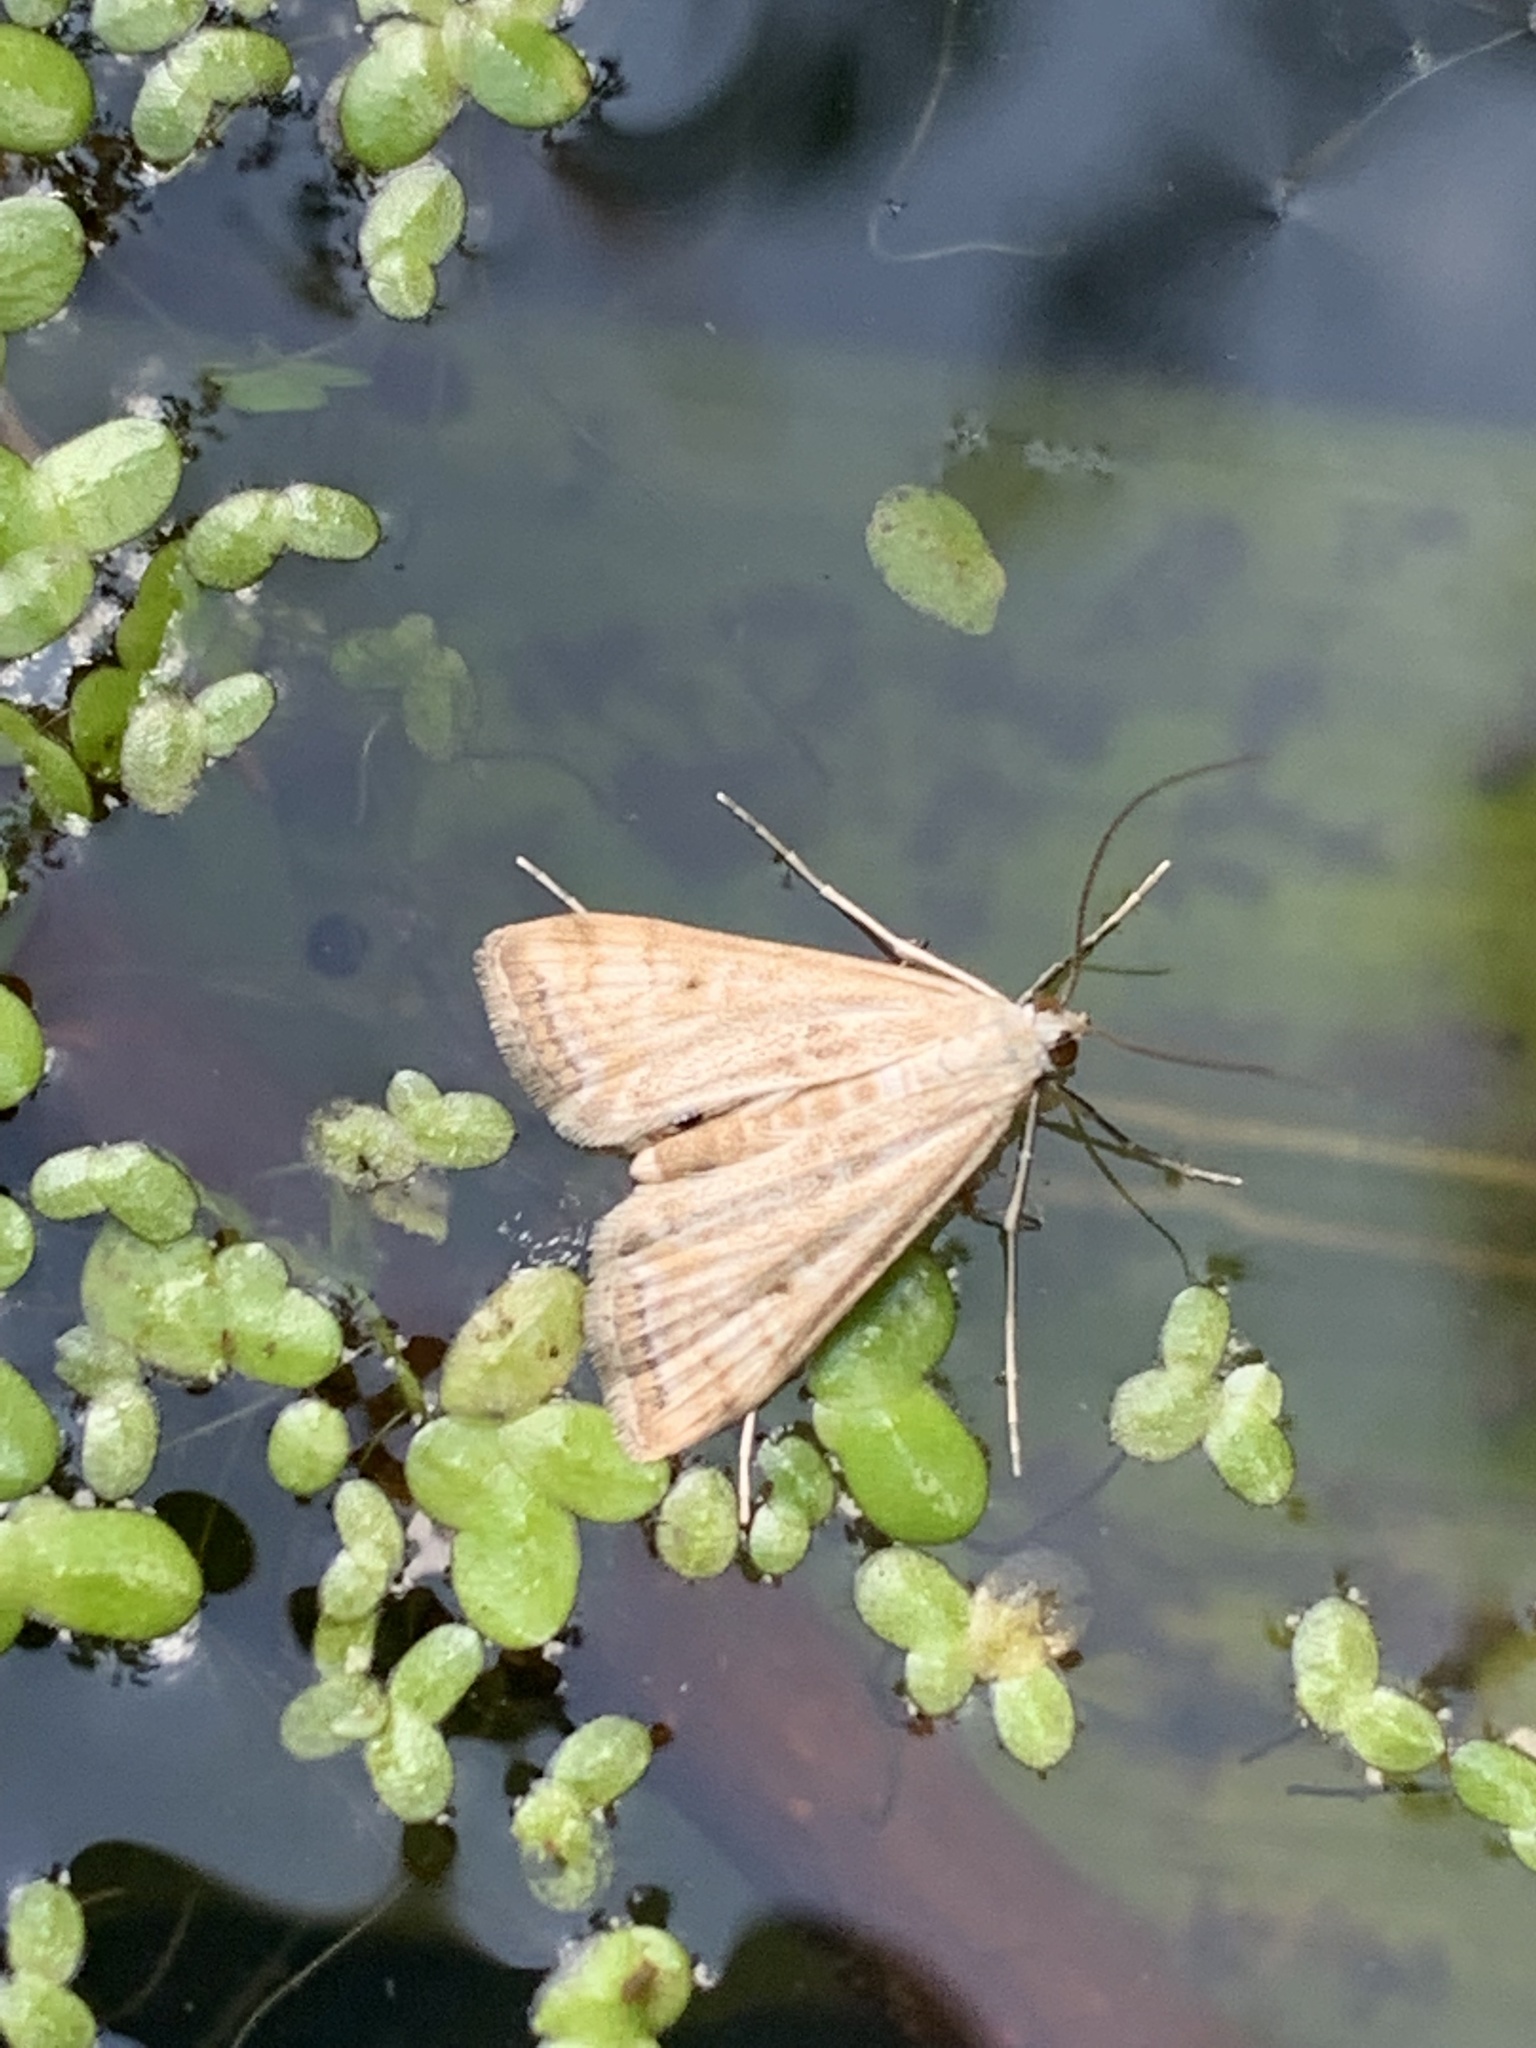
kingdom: Animalia
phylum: Arthropoda
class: Insecta
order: Lepidoptera
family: Crambidae
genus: Cataclysta
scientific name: Cataclysta lemnata
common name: Small china-mark
